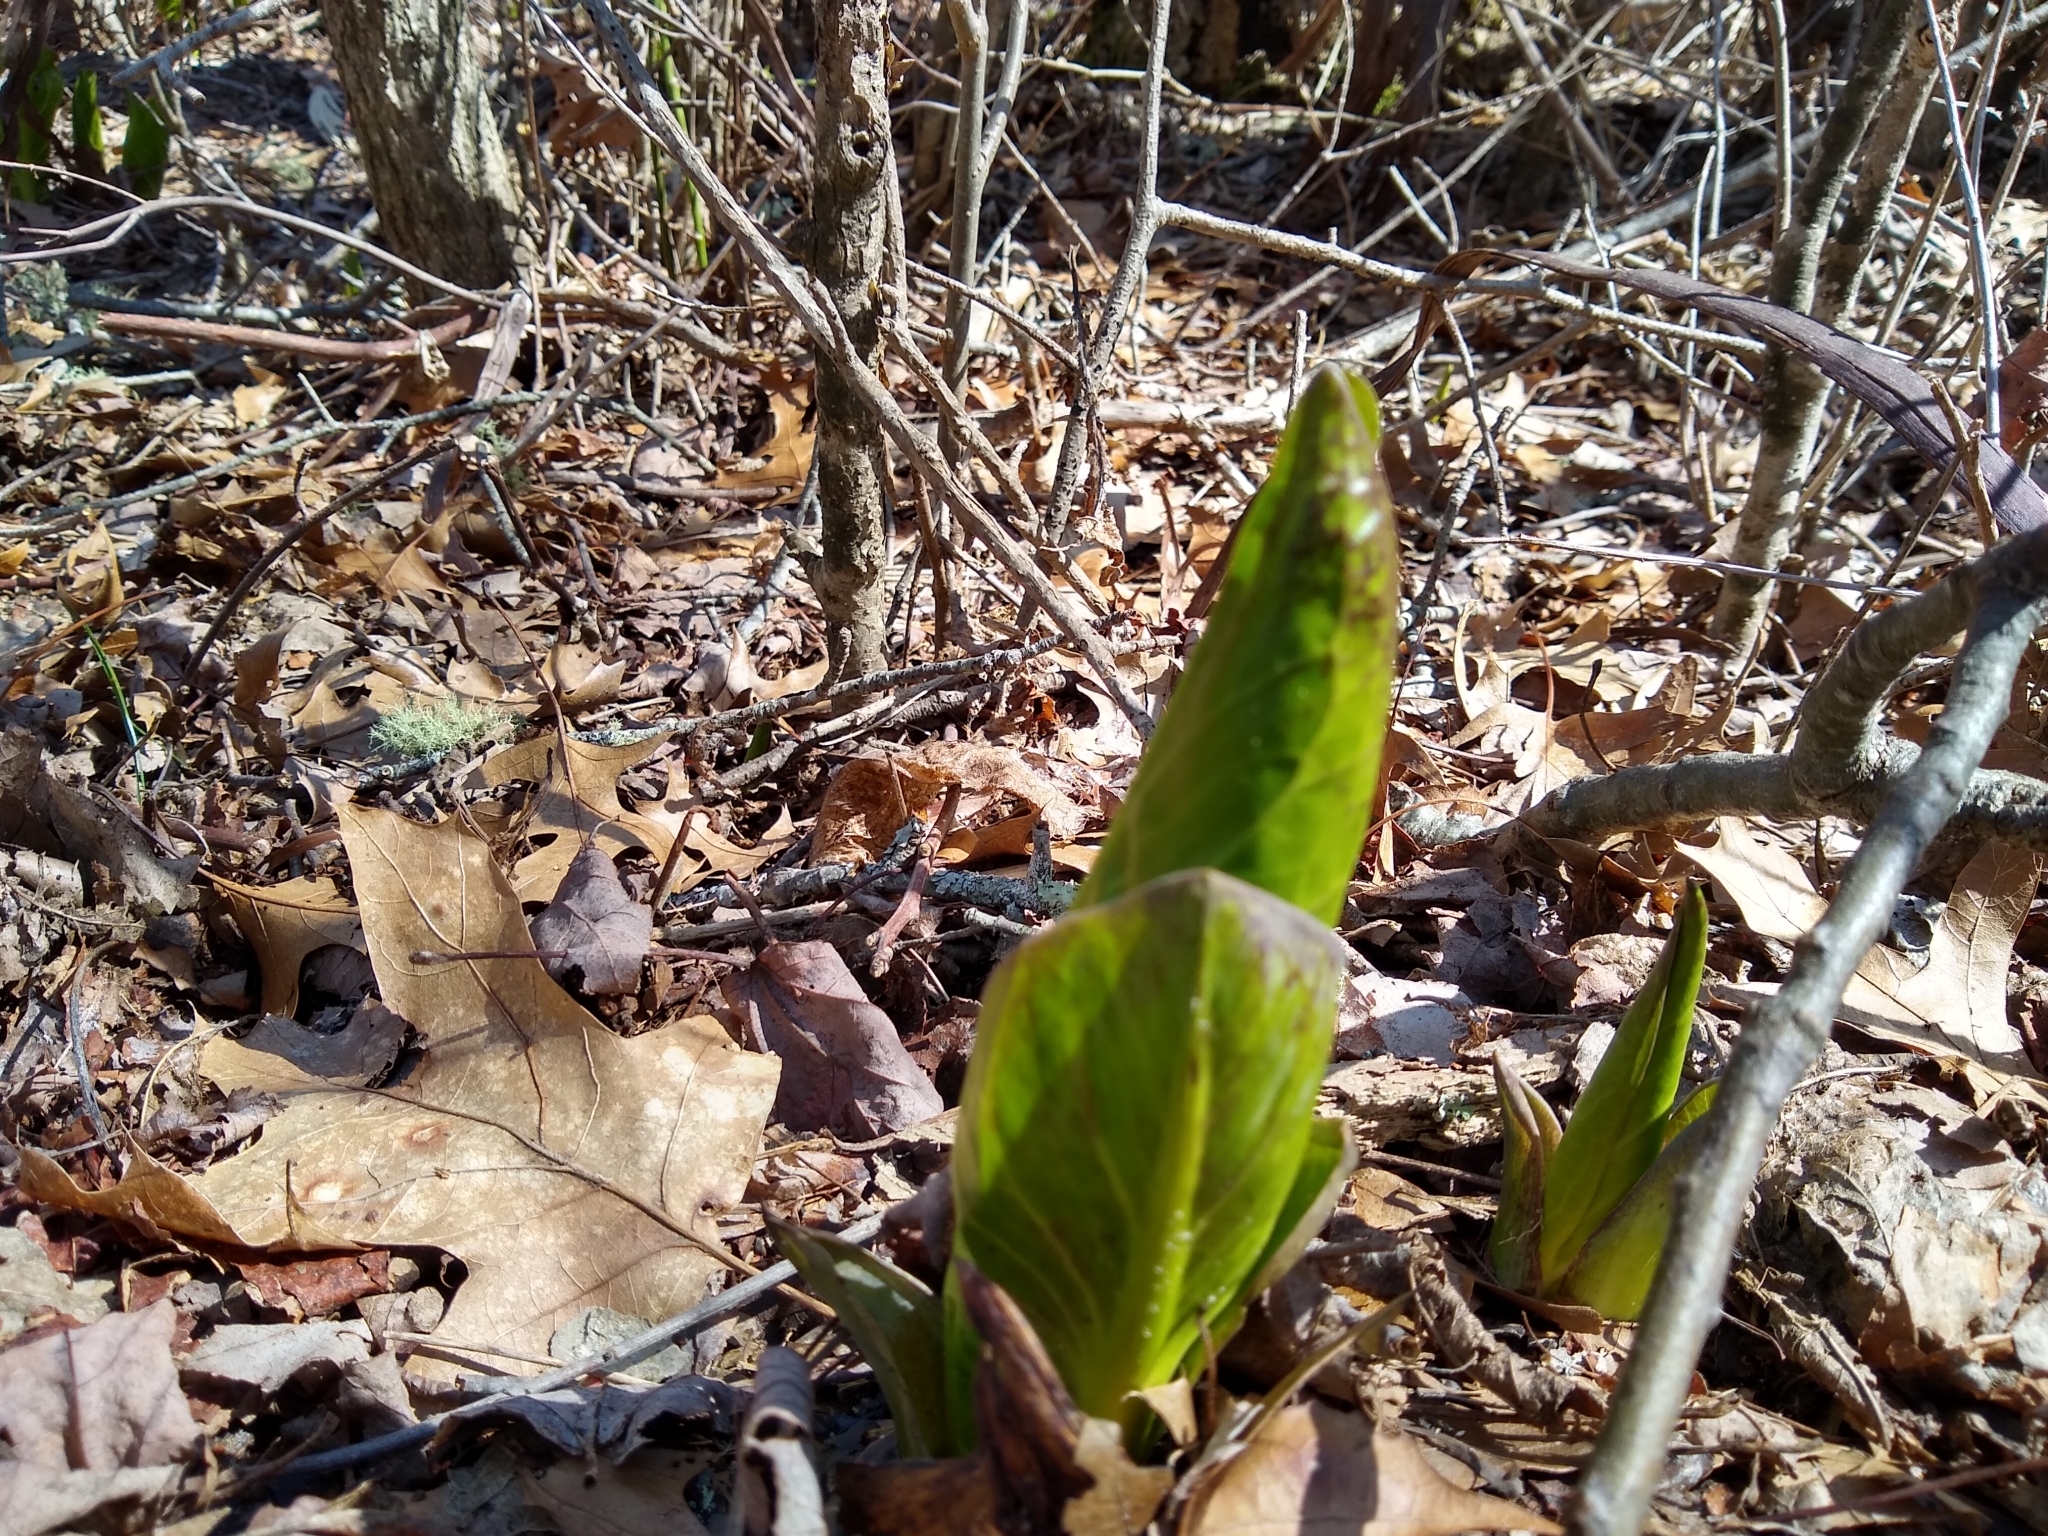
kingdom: Plantae
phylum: Tracheophyta
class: Liliopsida
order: Alismatales
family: Araceae
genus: Symplocarpus
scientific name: Symplocarpus foetidus
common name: Eastern skunk cabbage
